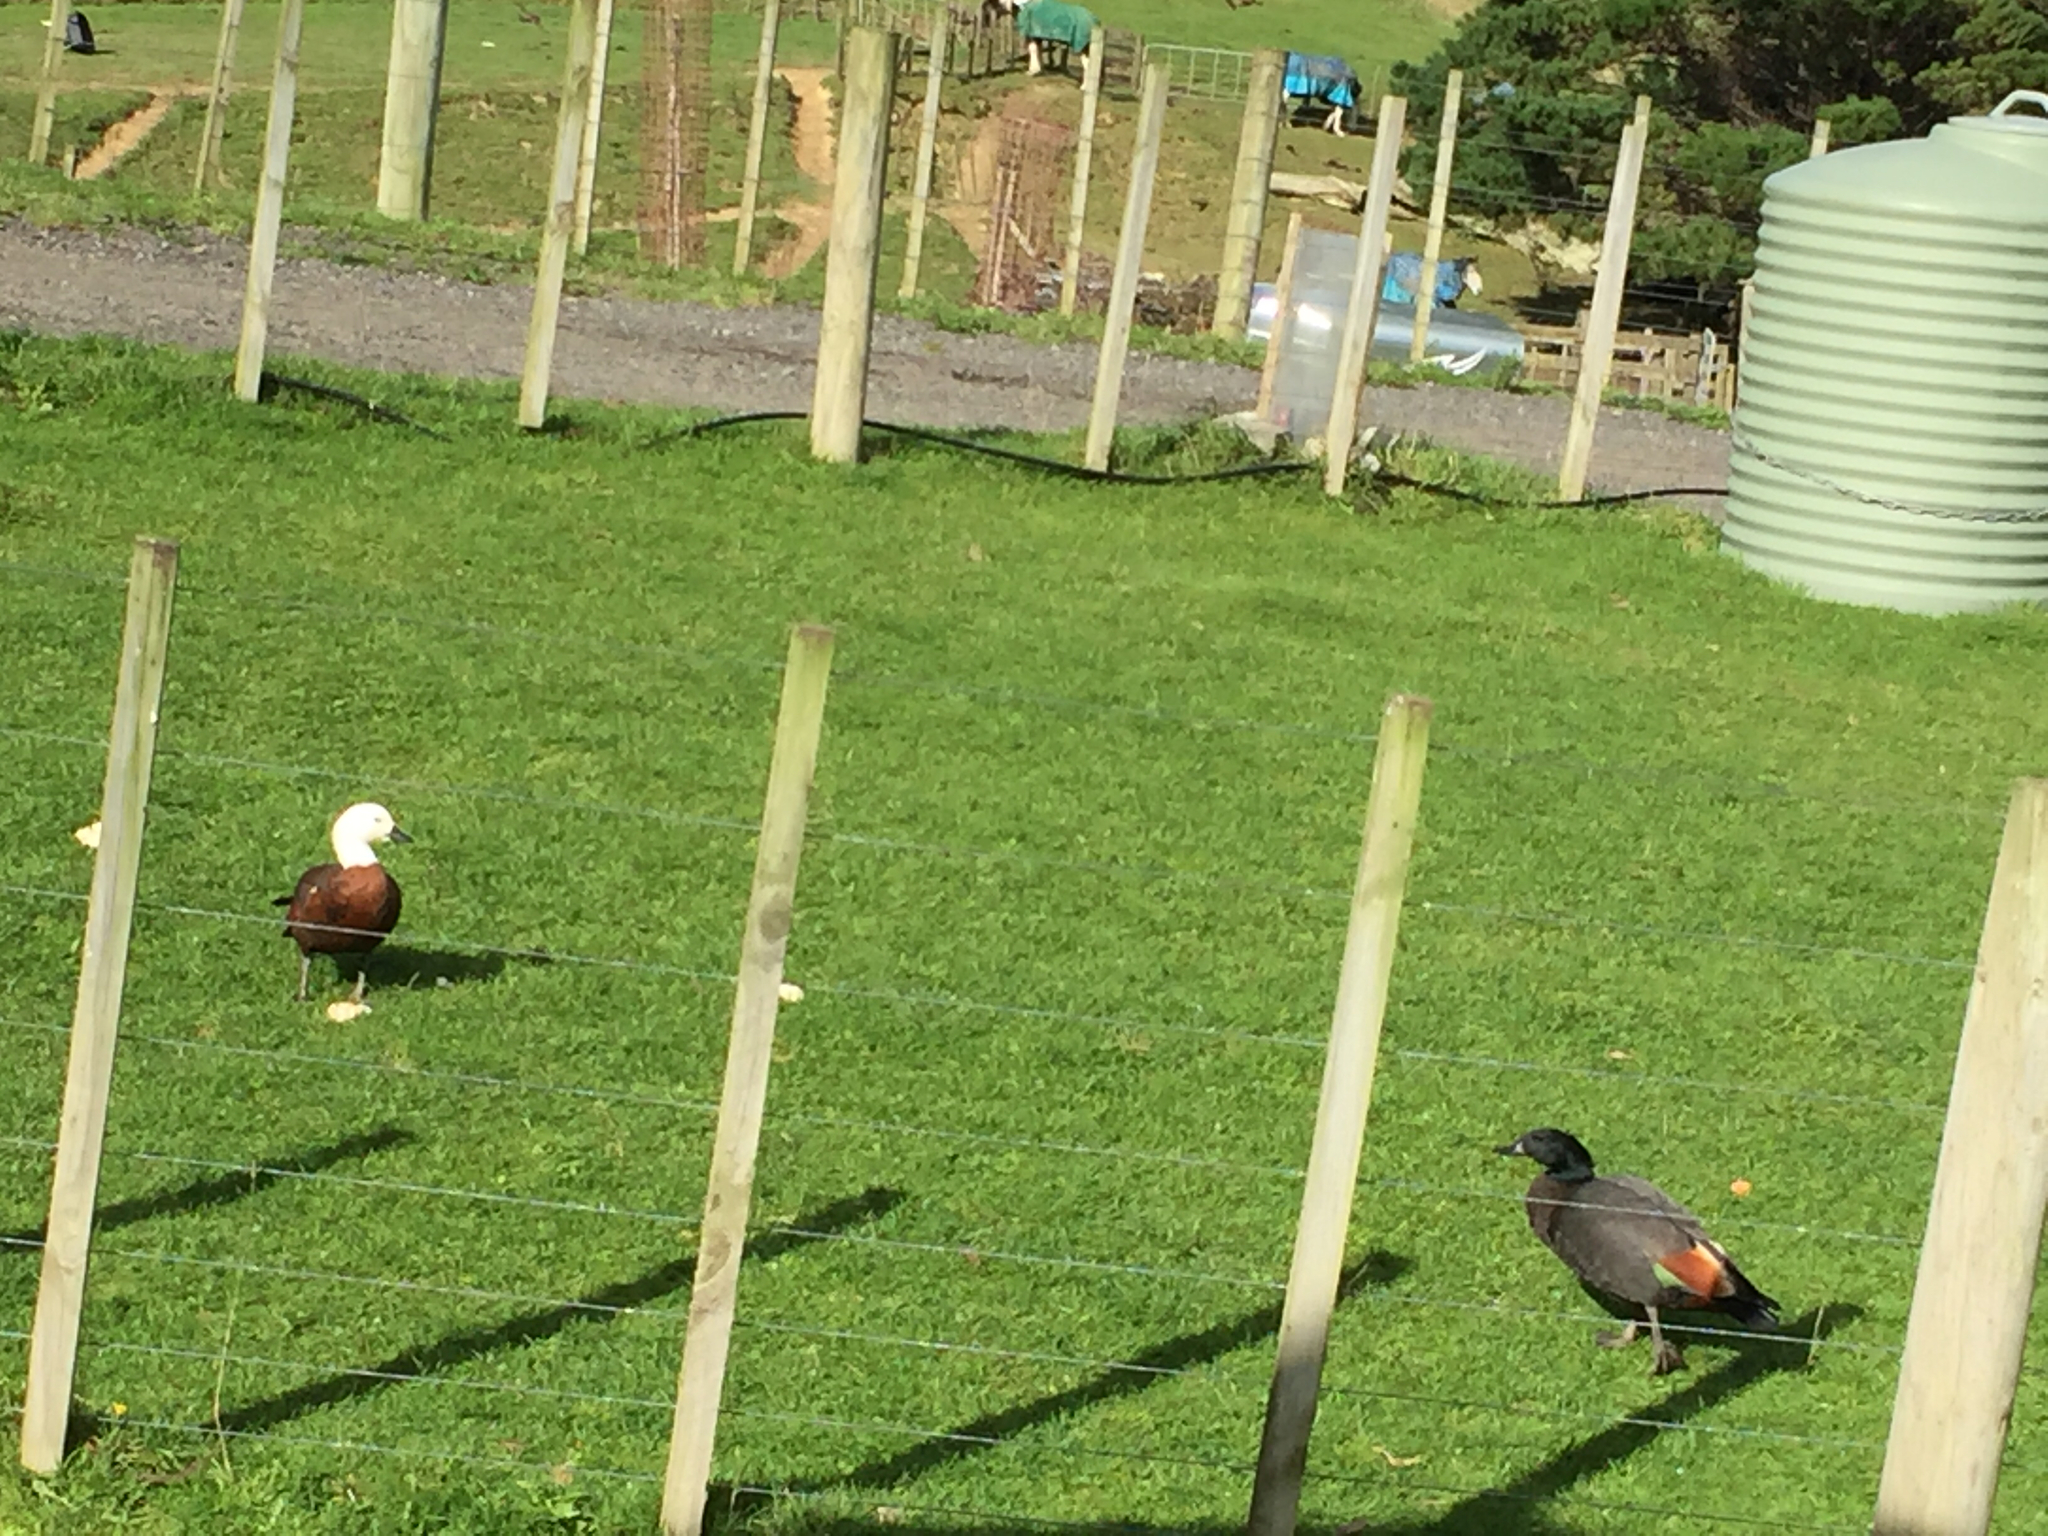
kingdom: Animalia
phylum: Chordata
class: Aves
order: Anseriformes
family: Anatidae
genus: Tadorna
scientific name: Tadorna variegata
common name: Paradise shelduck
